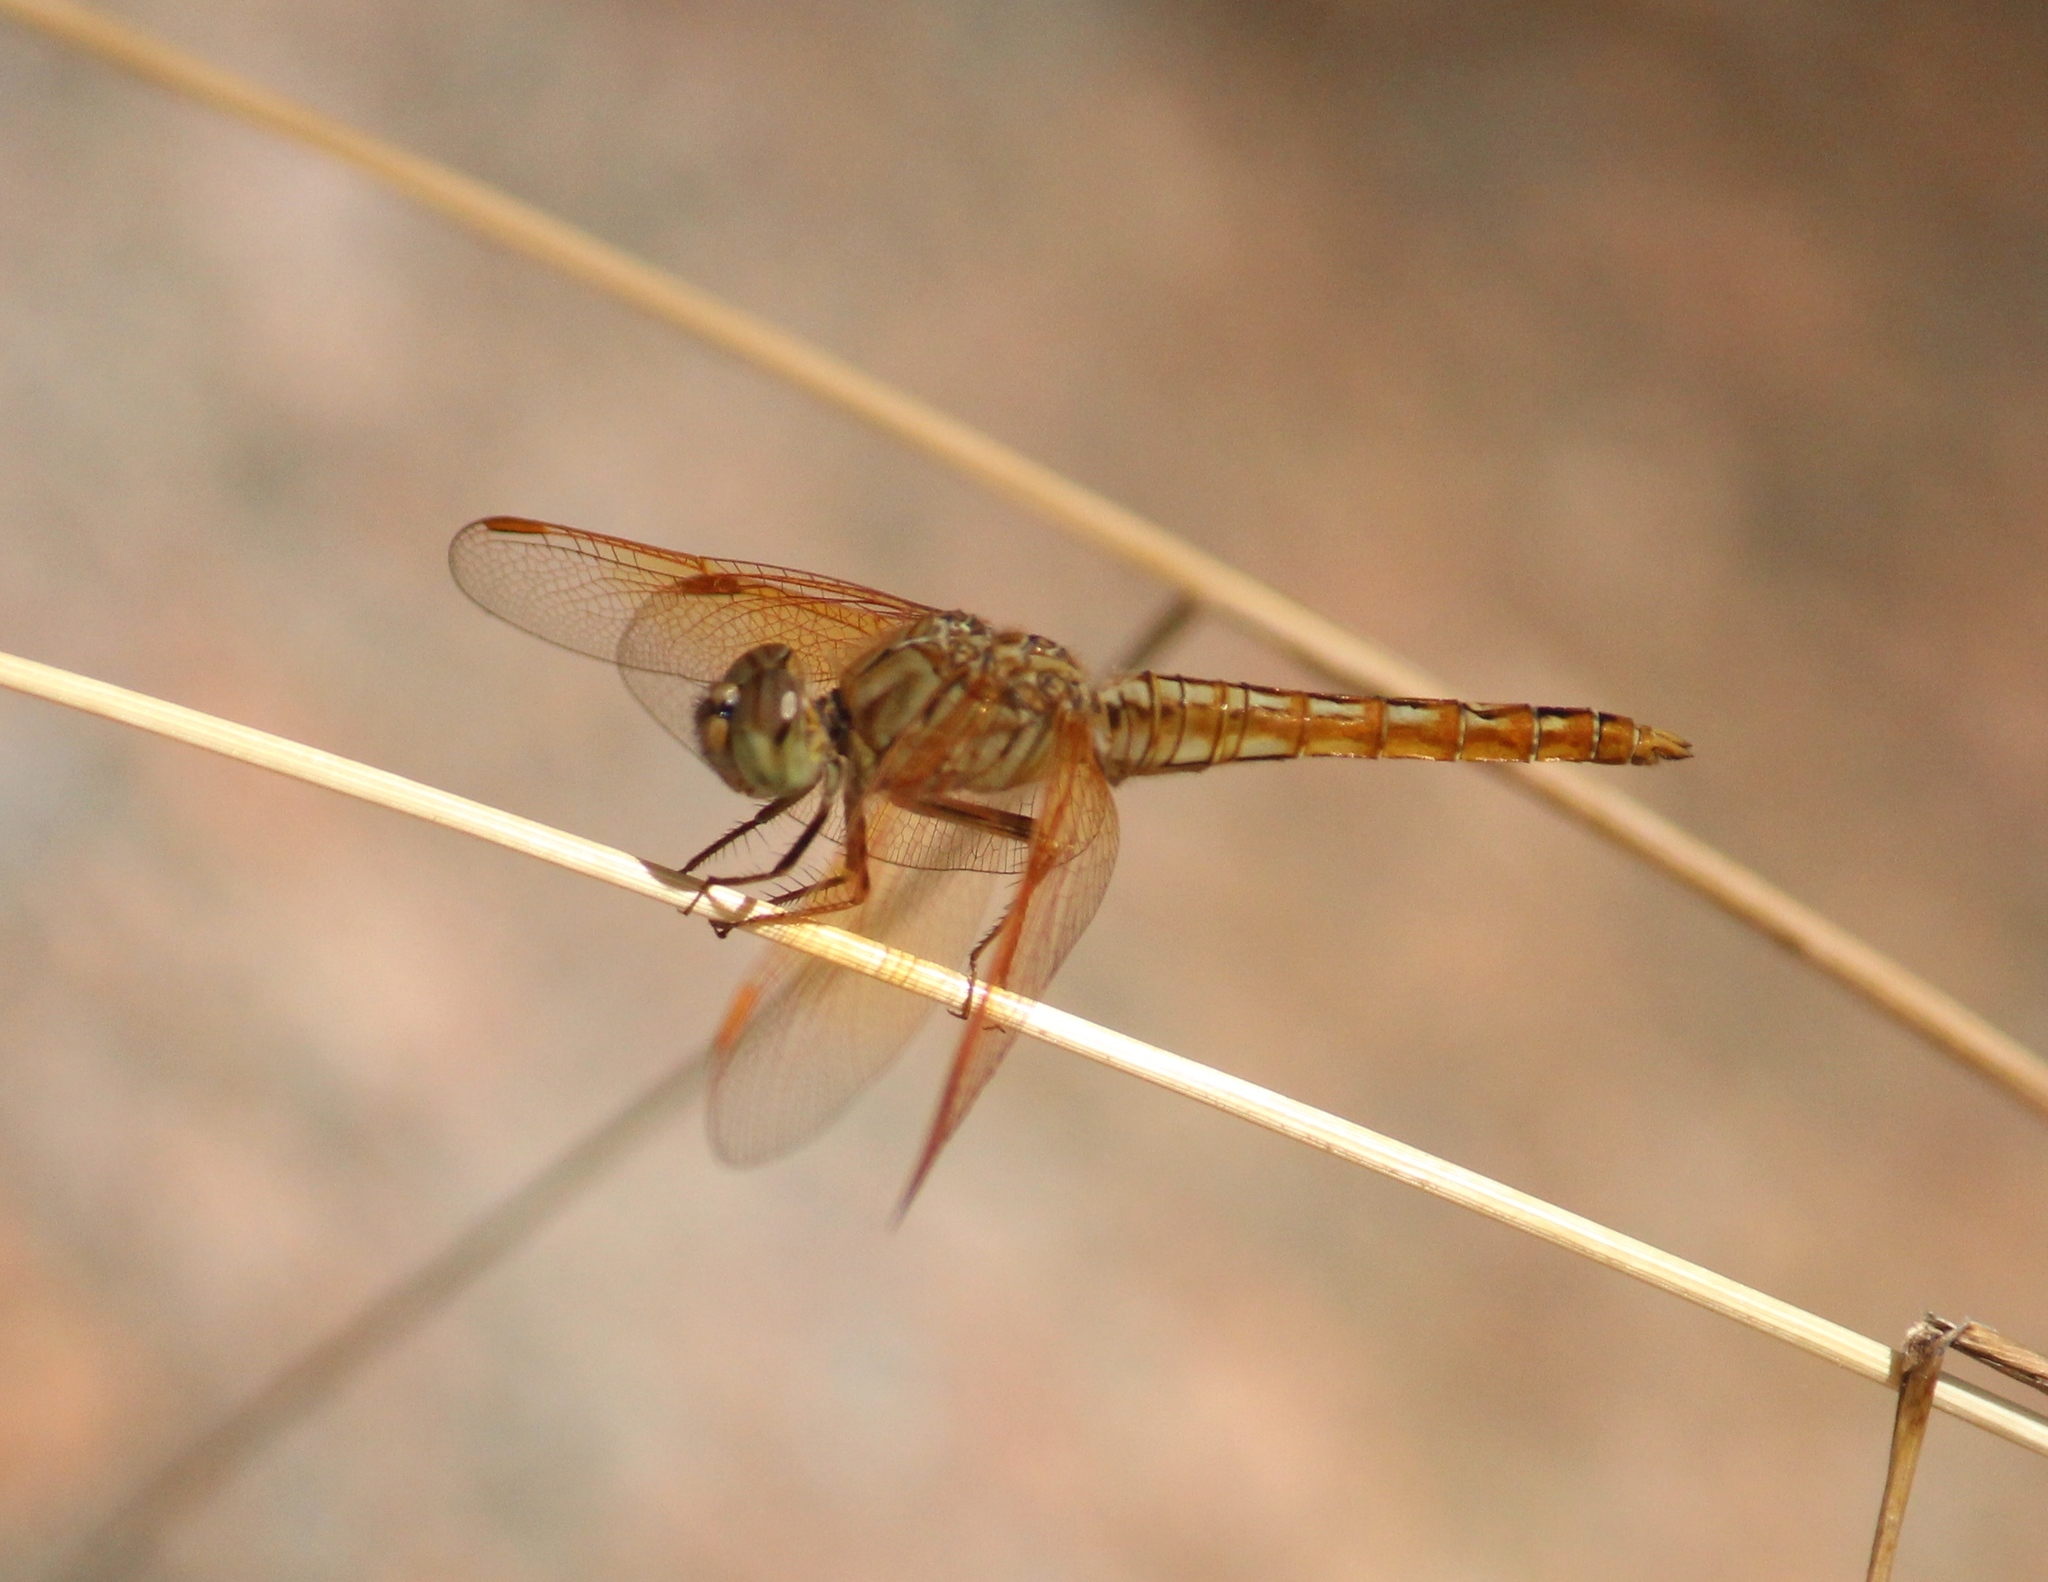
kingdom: Animalia
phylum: Arthropoda
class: Insecta
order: Odonata
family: Libellulidae
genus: Brachythemis
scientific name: Brachythemis contaminata
